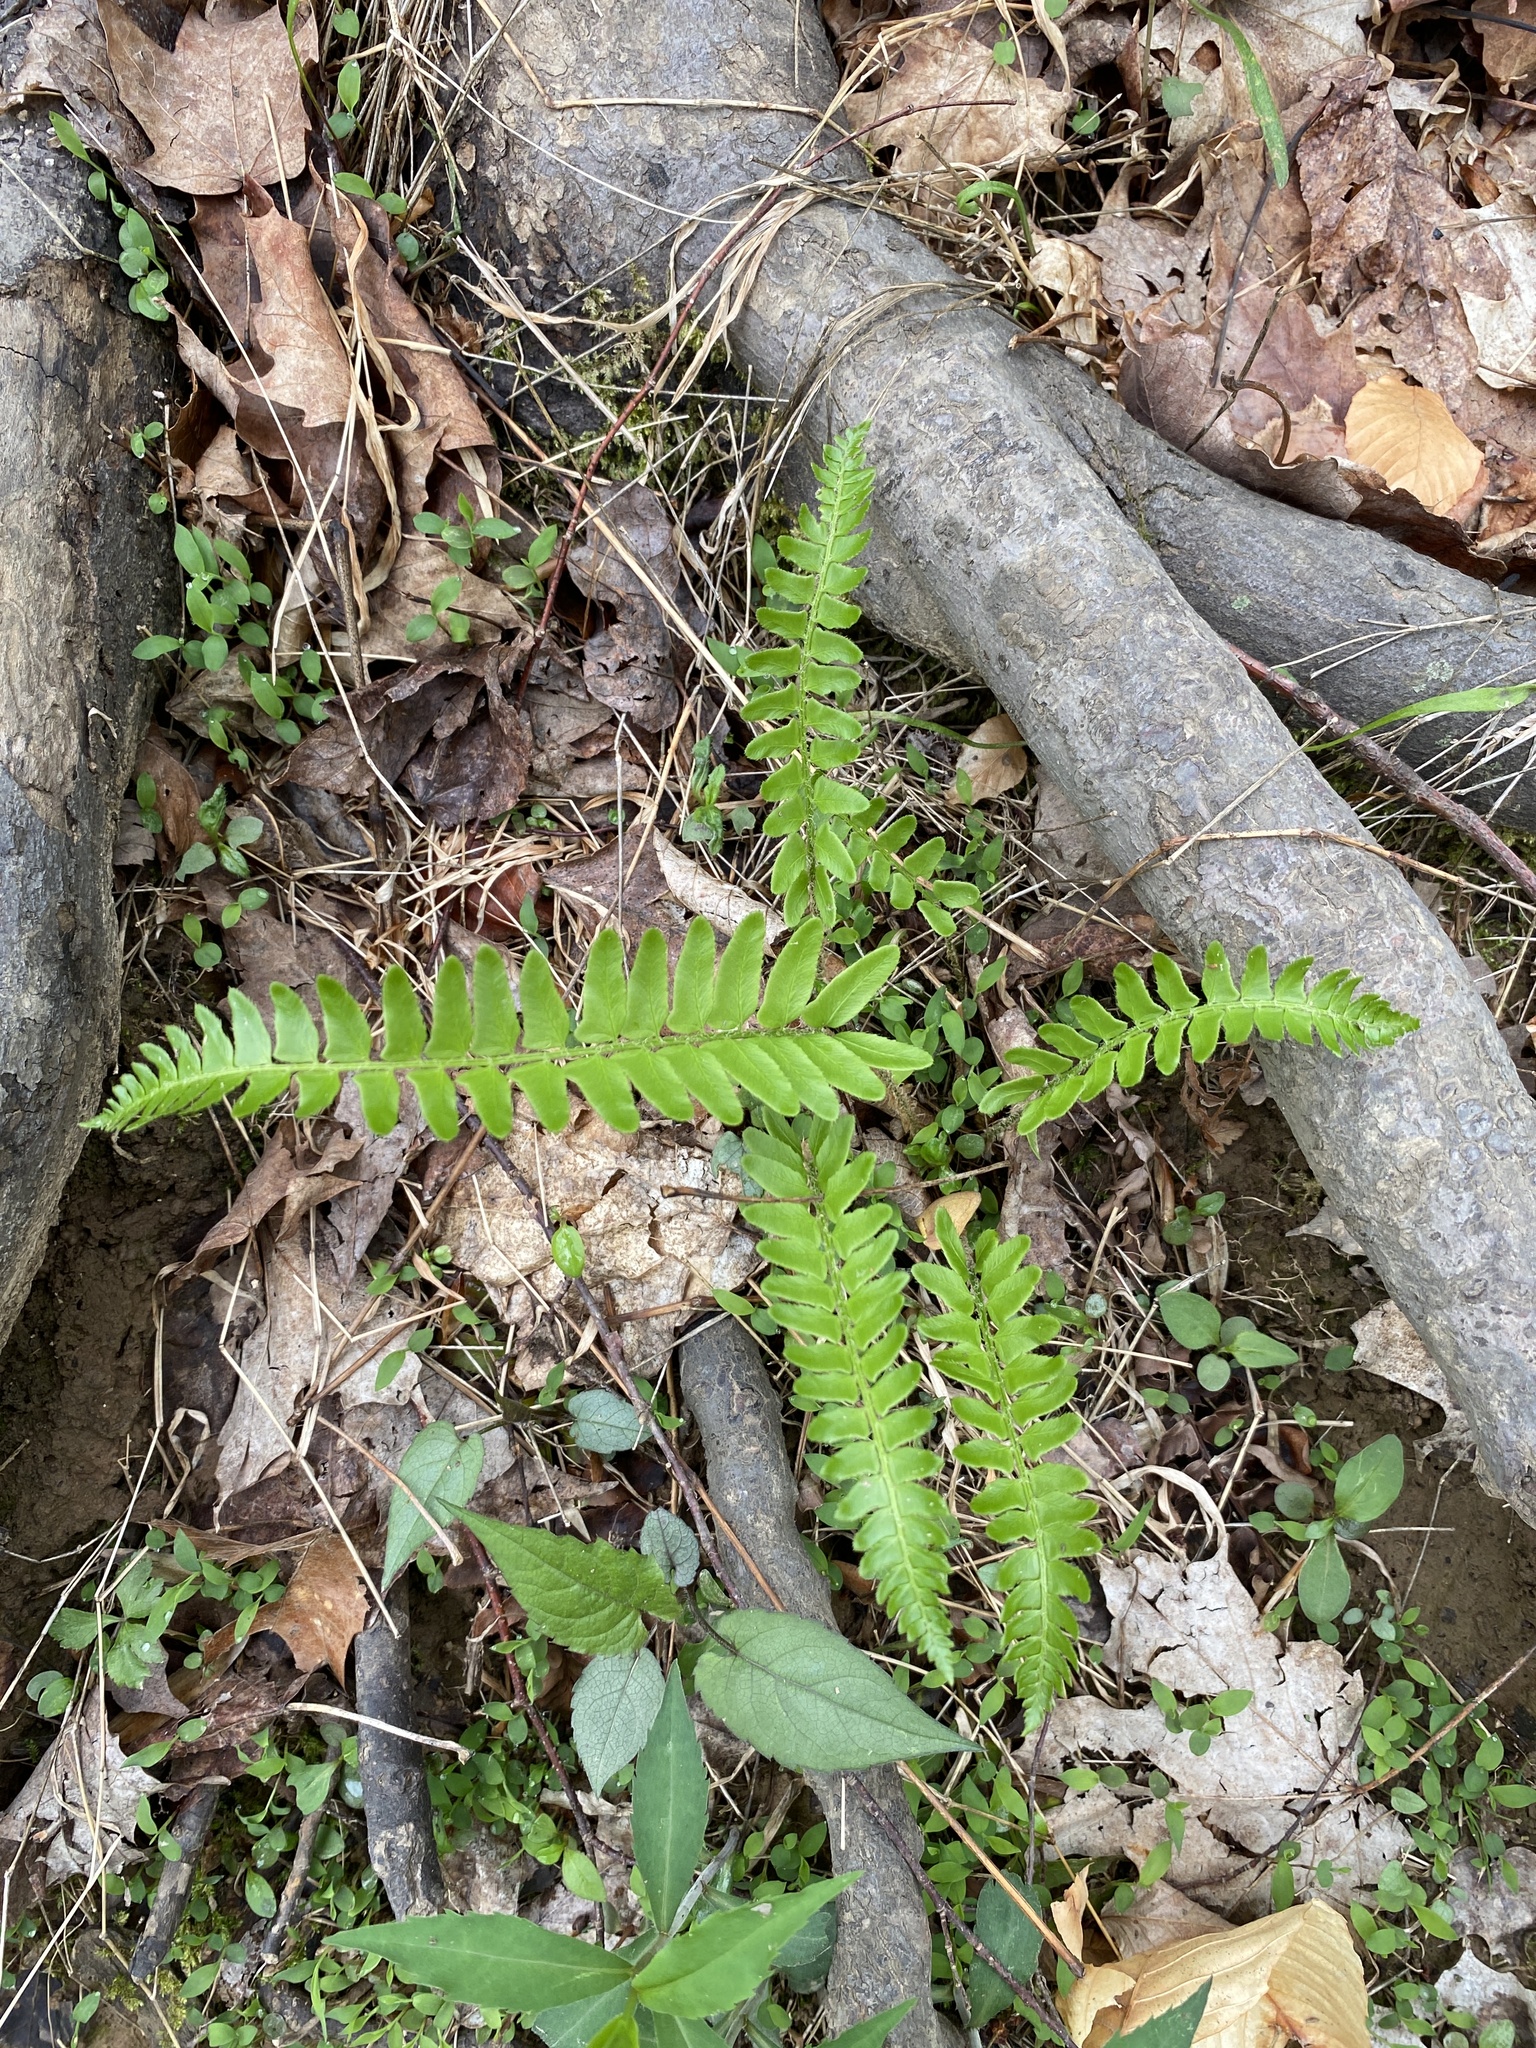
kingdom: Plantae
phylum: Tracheophyta
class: Polypodiopsida
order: Polypodiales
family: Dryopteridaceae
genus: Polystichum
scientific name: Polystichum acrostichoides
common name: Christmas fern
